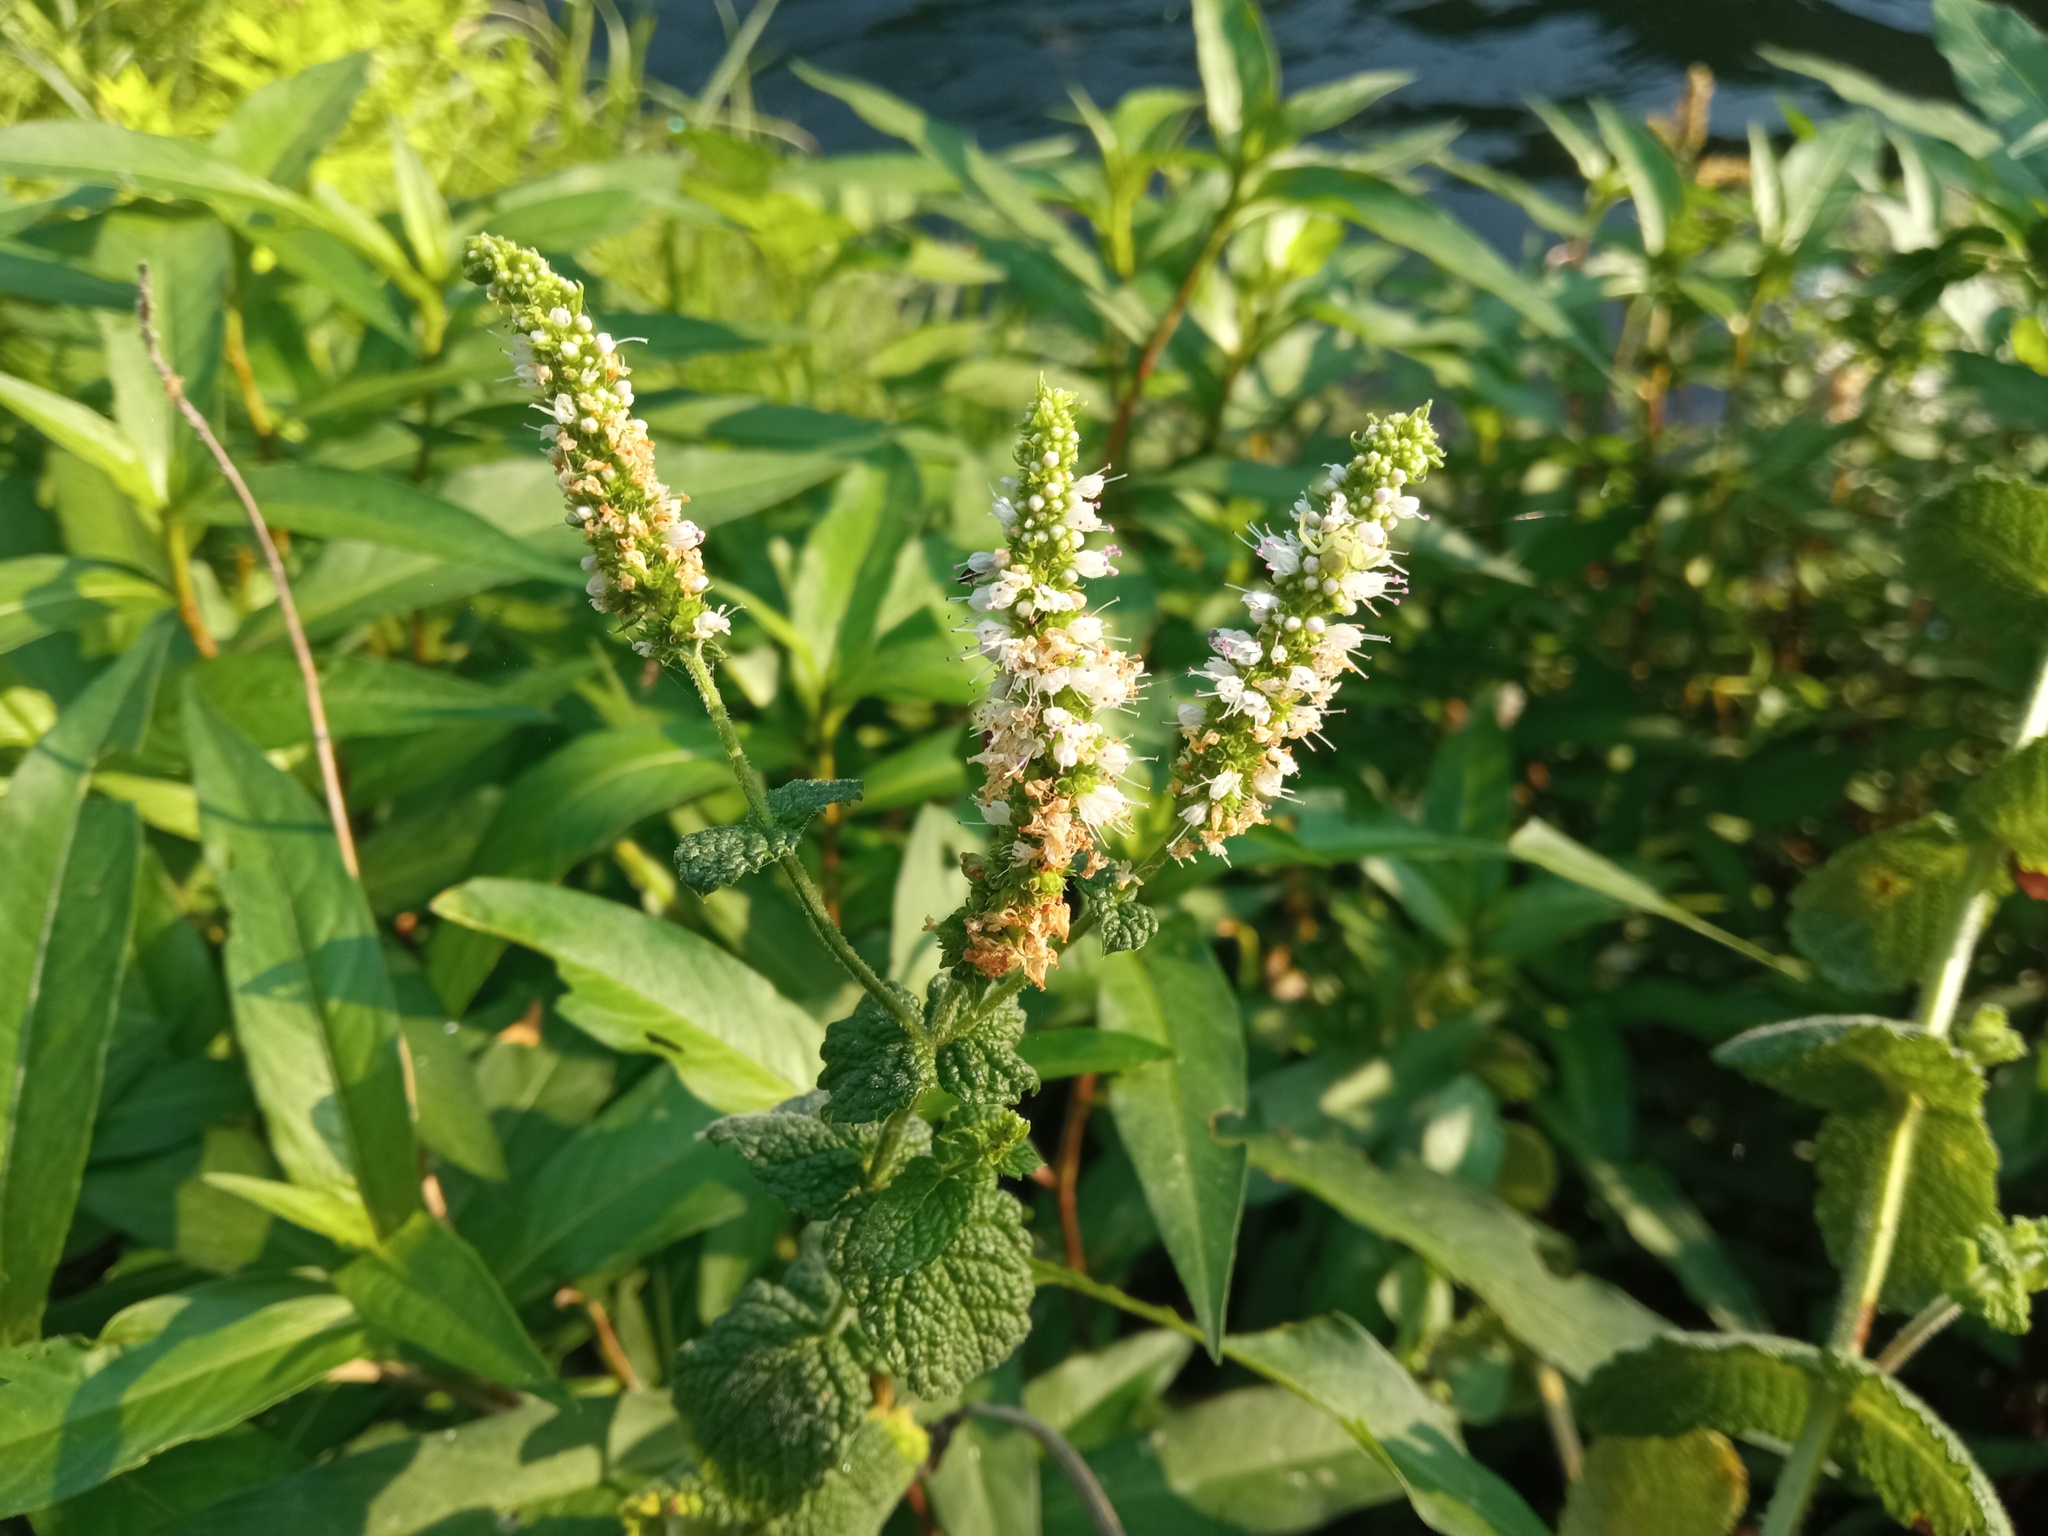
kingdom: Plantae
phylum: Tracheophyta
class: Magnoliopsida
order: Lamiales
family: Lamiaceae
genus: Mentha
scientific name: Mentha suaveolens
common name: Apple mint
